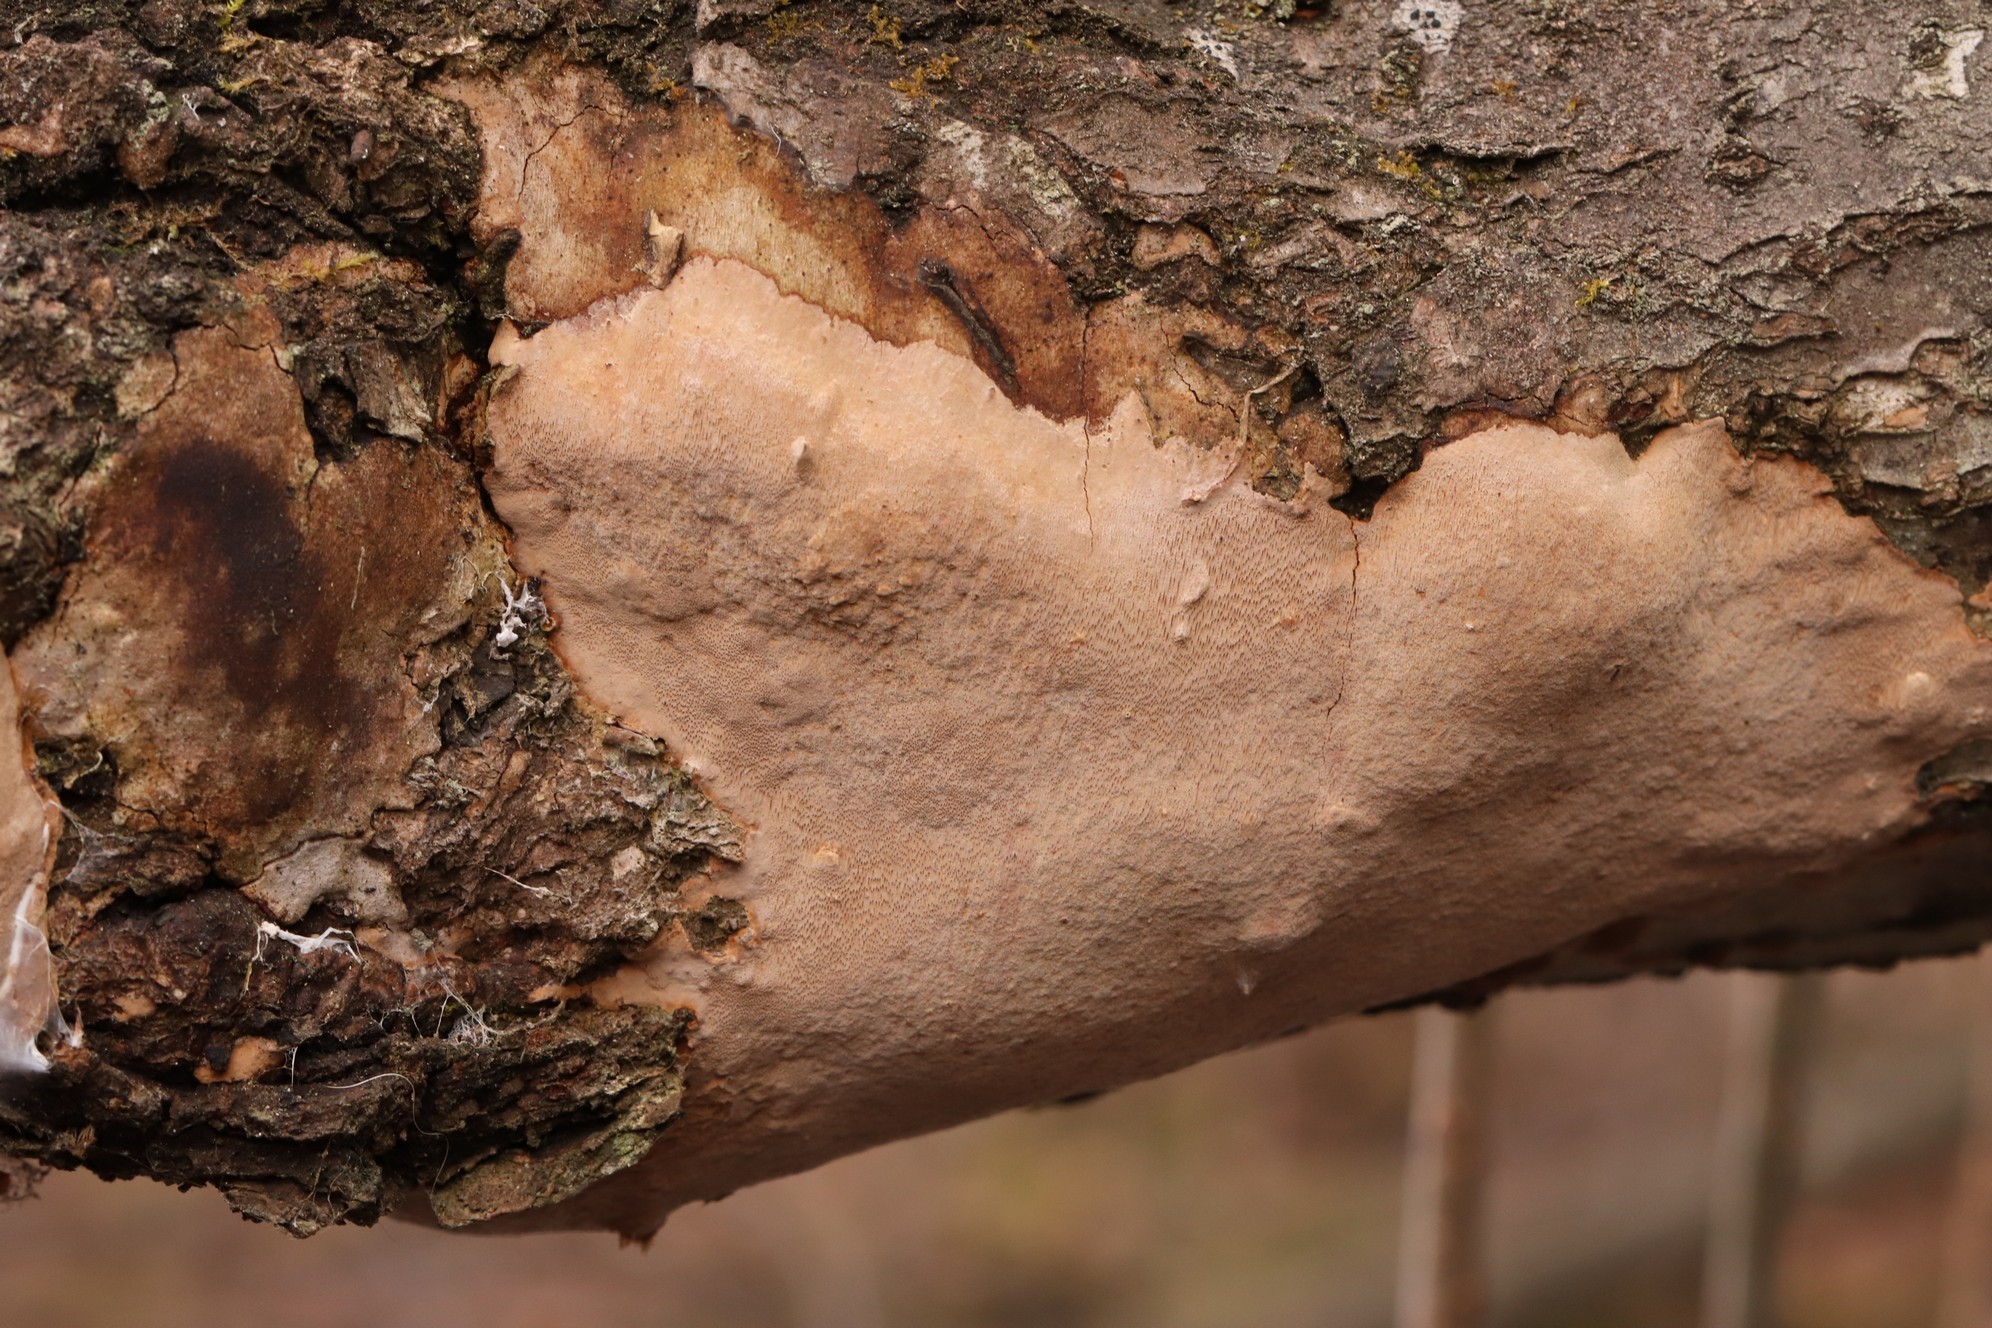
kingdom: Fungi
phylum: Basidiomycota
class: Agaricomycetes
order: Hymenochaetales
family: Hymenochaetaceae
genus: Fomitiporia
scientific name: Fomitiporia punctata
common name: Elbowpatch crust
